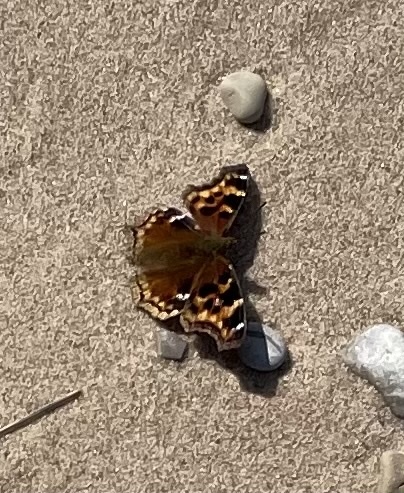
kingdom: Animalia
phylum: Arthropoda
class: Insecta
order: Lepidoptera
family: Nymphalidae
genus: Polygonia
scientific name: Polygonia vaualbum
